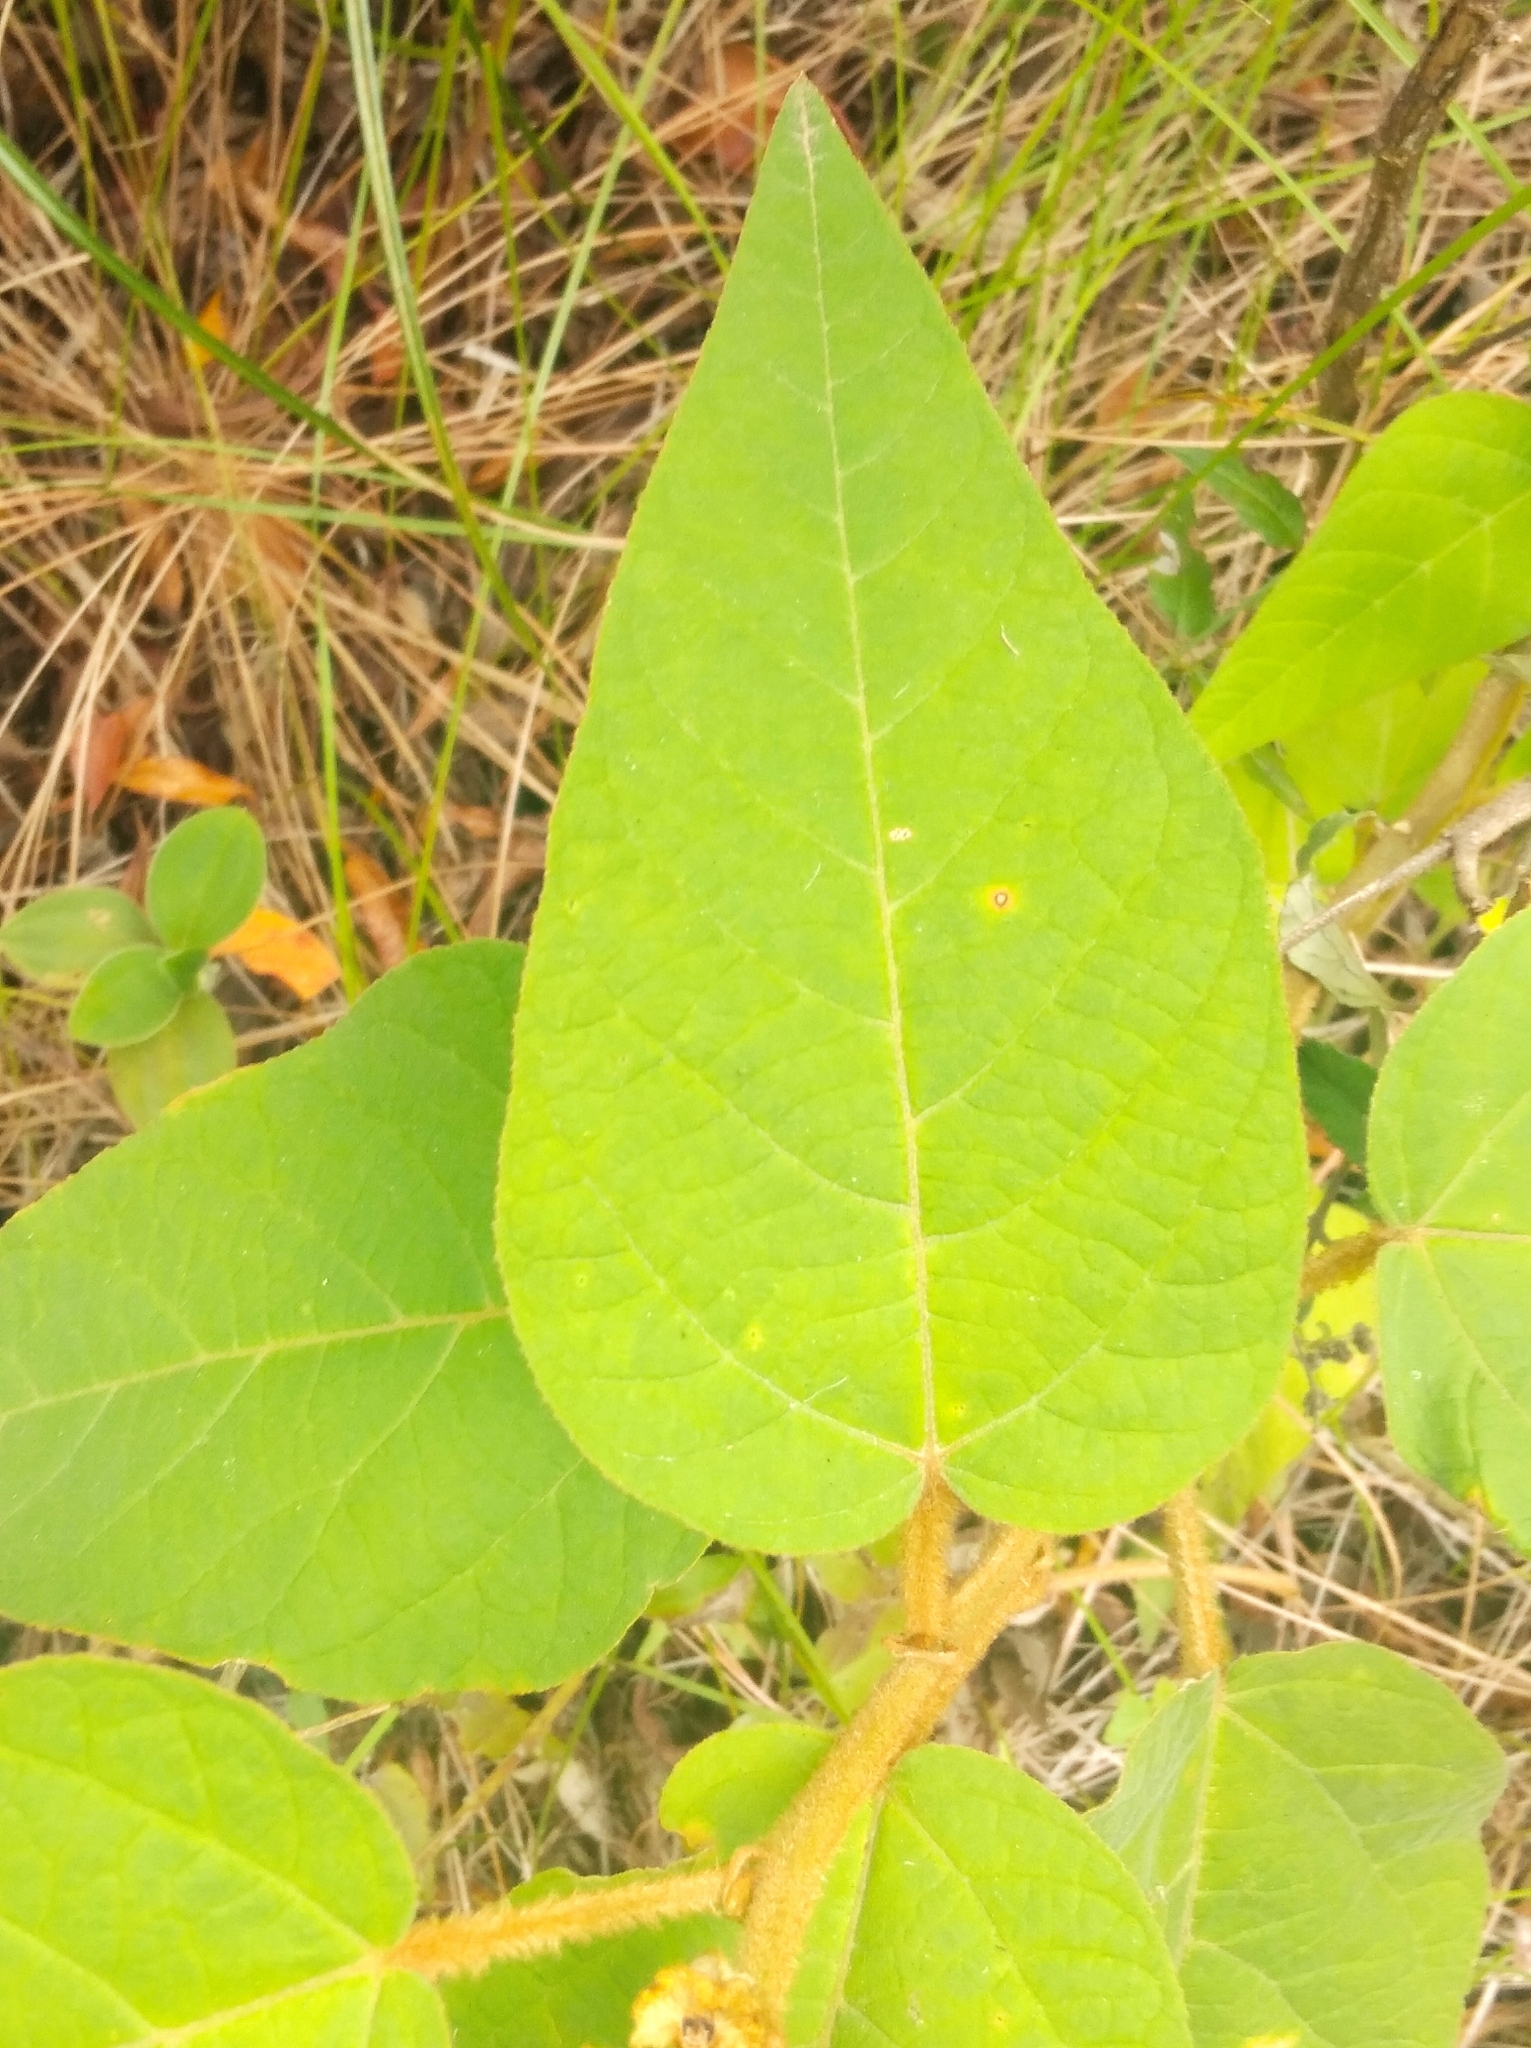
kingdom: Plantae
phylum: Tracheophyta
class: Magnoliopsida
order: Malpighiales
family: Euphorbiaceae
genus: Croton
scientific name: Croton triqueter
